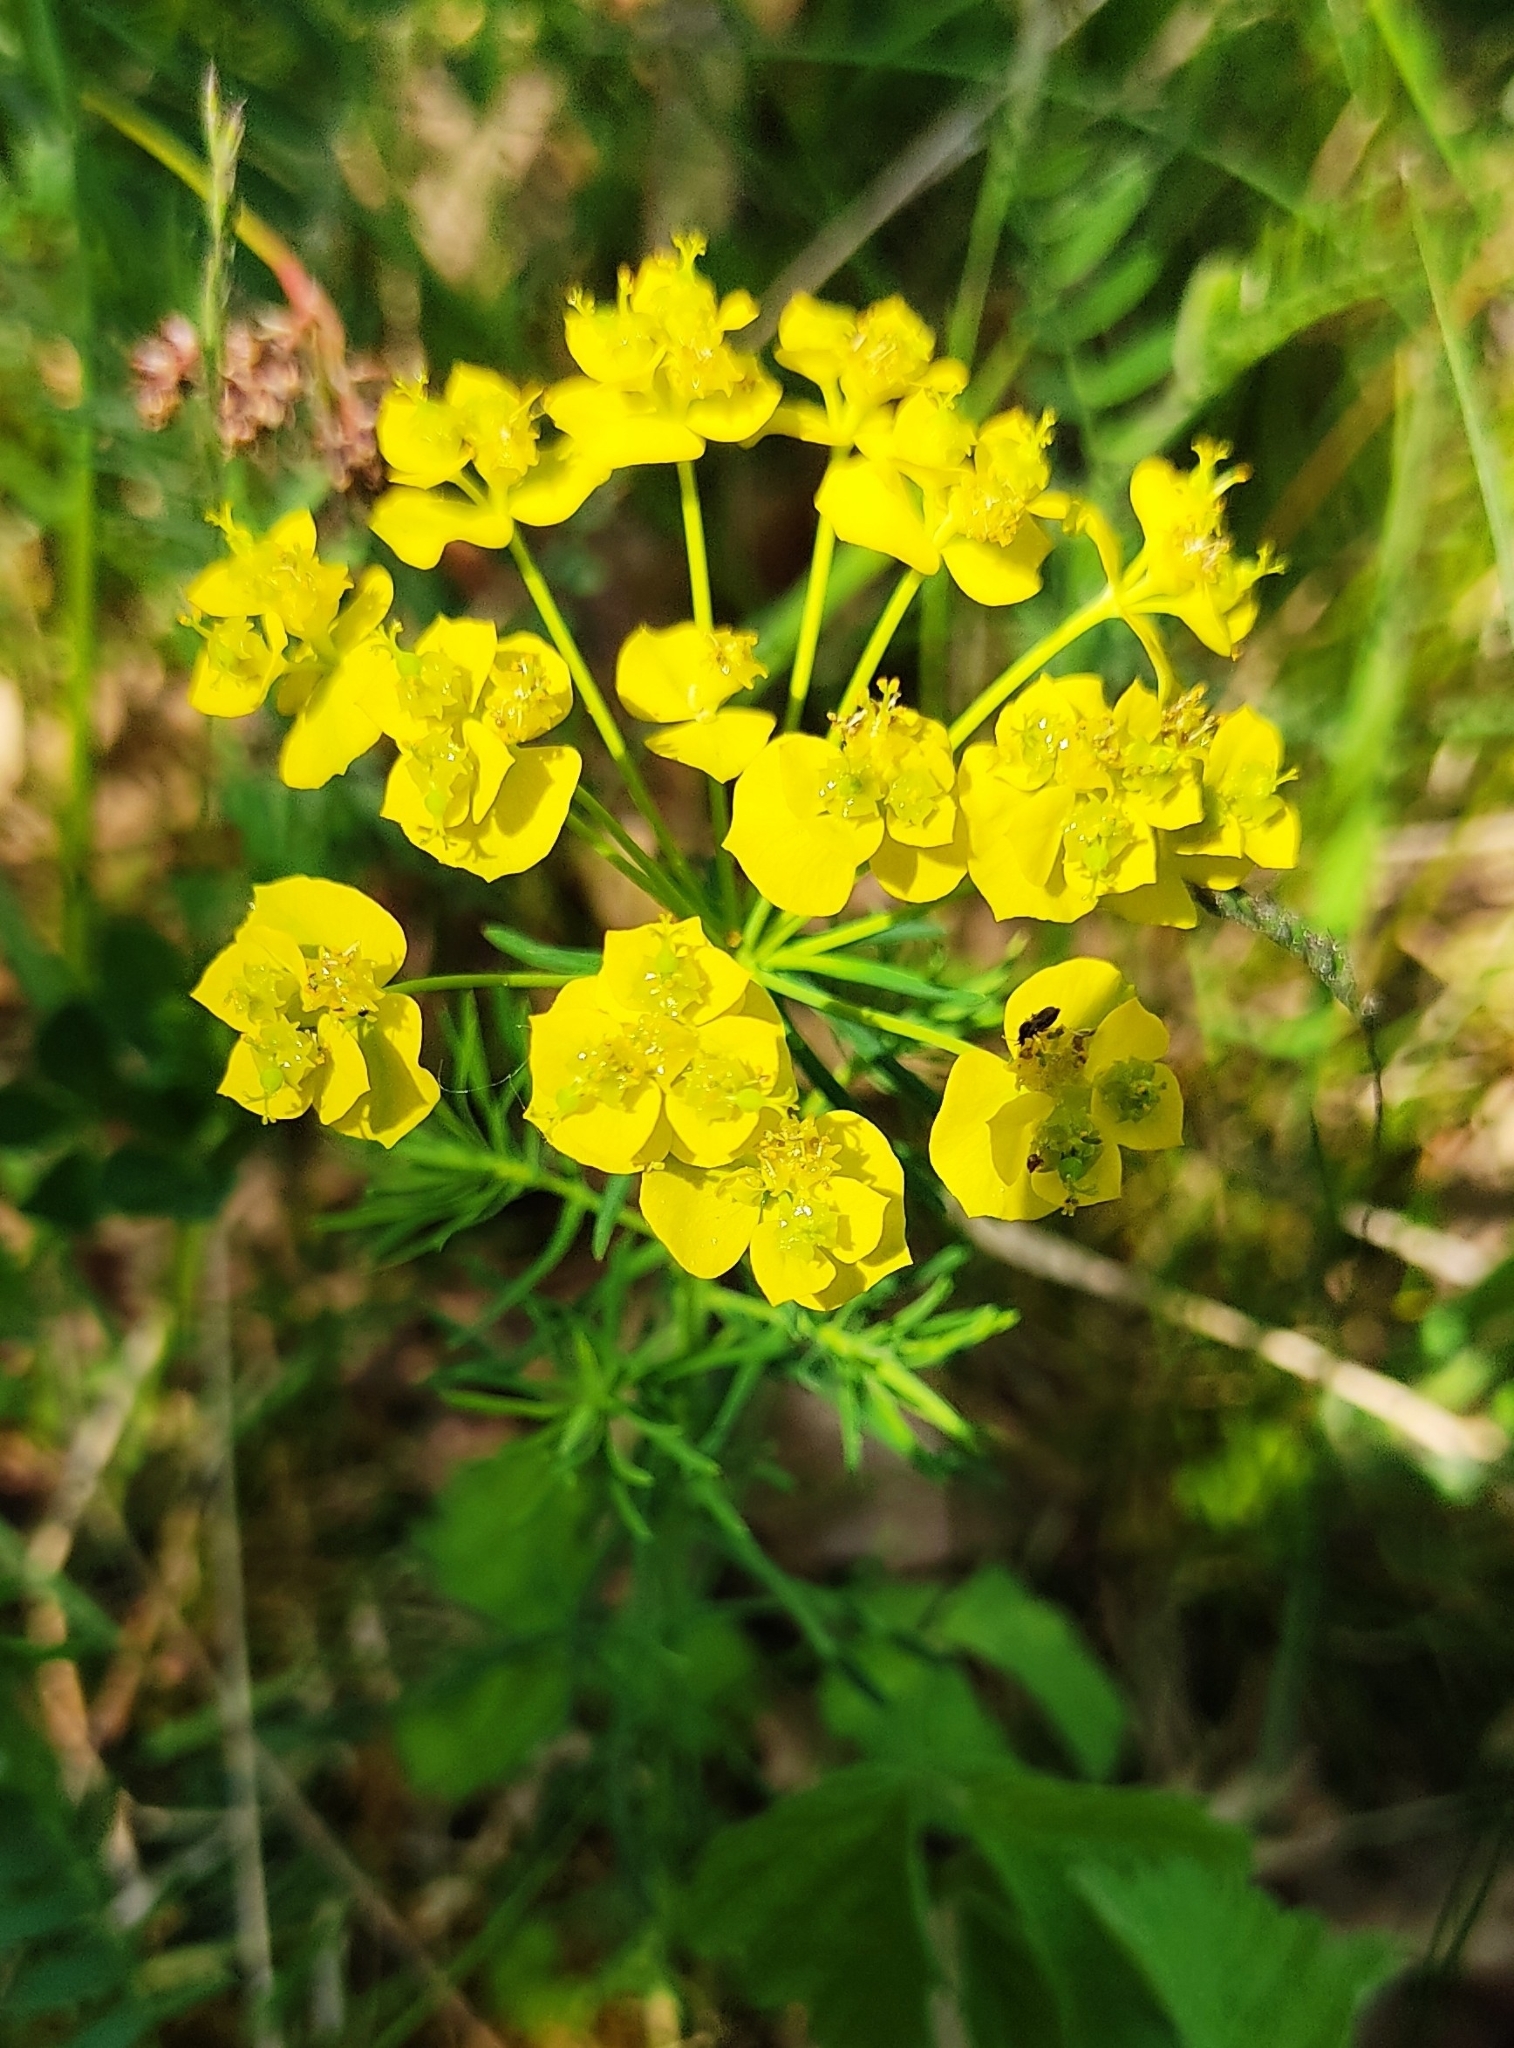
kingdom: Plantae
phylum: Tracheophyta
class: Magnoliopsida
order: Malpighiales
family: Euphorbiaceae
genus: Euphorbia
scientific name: Euphorbia cyparissias
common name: Cypress spurge
